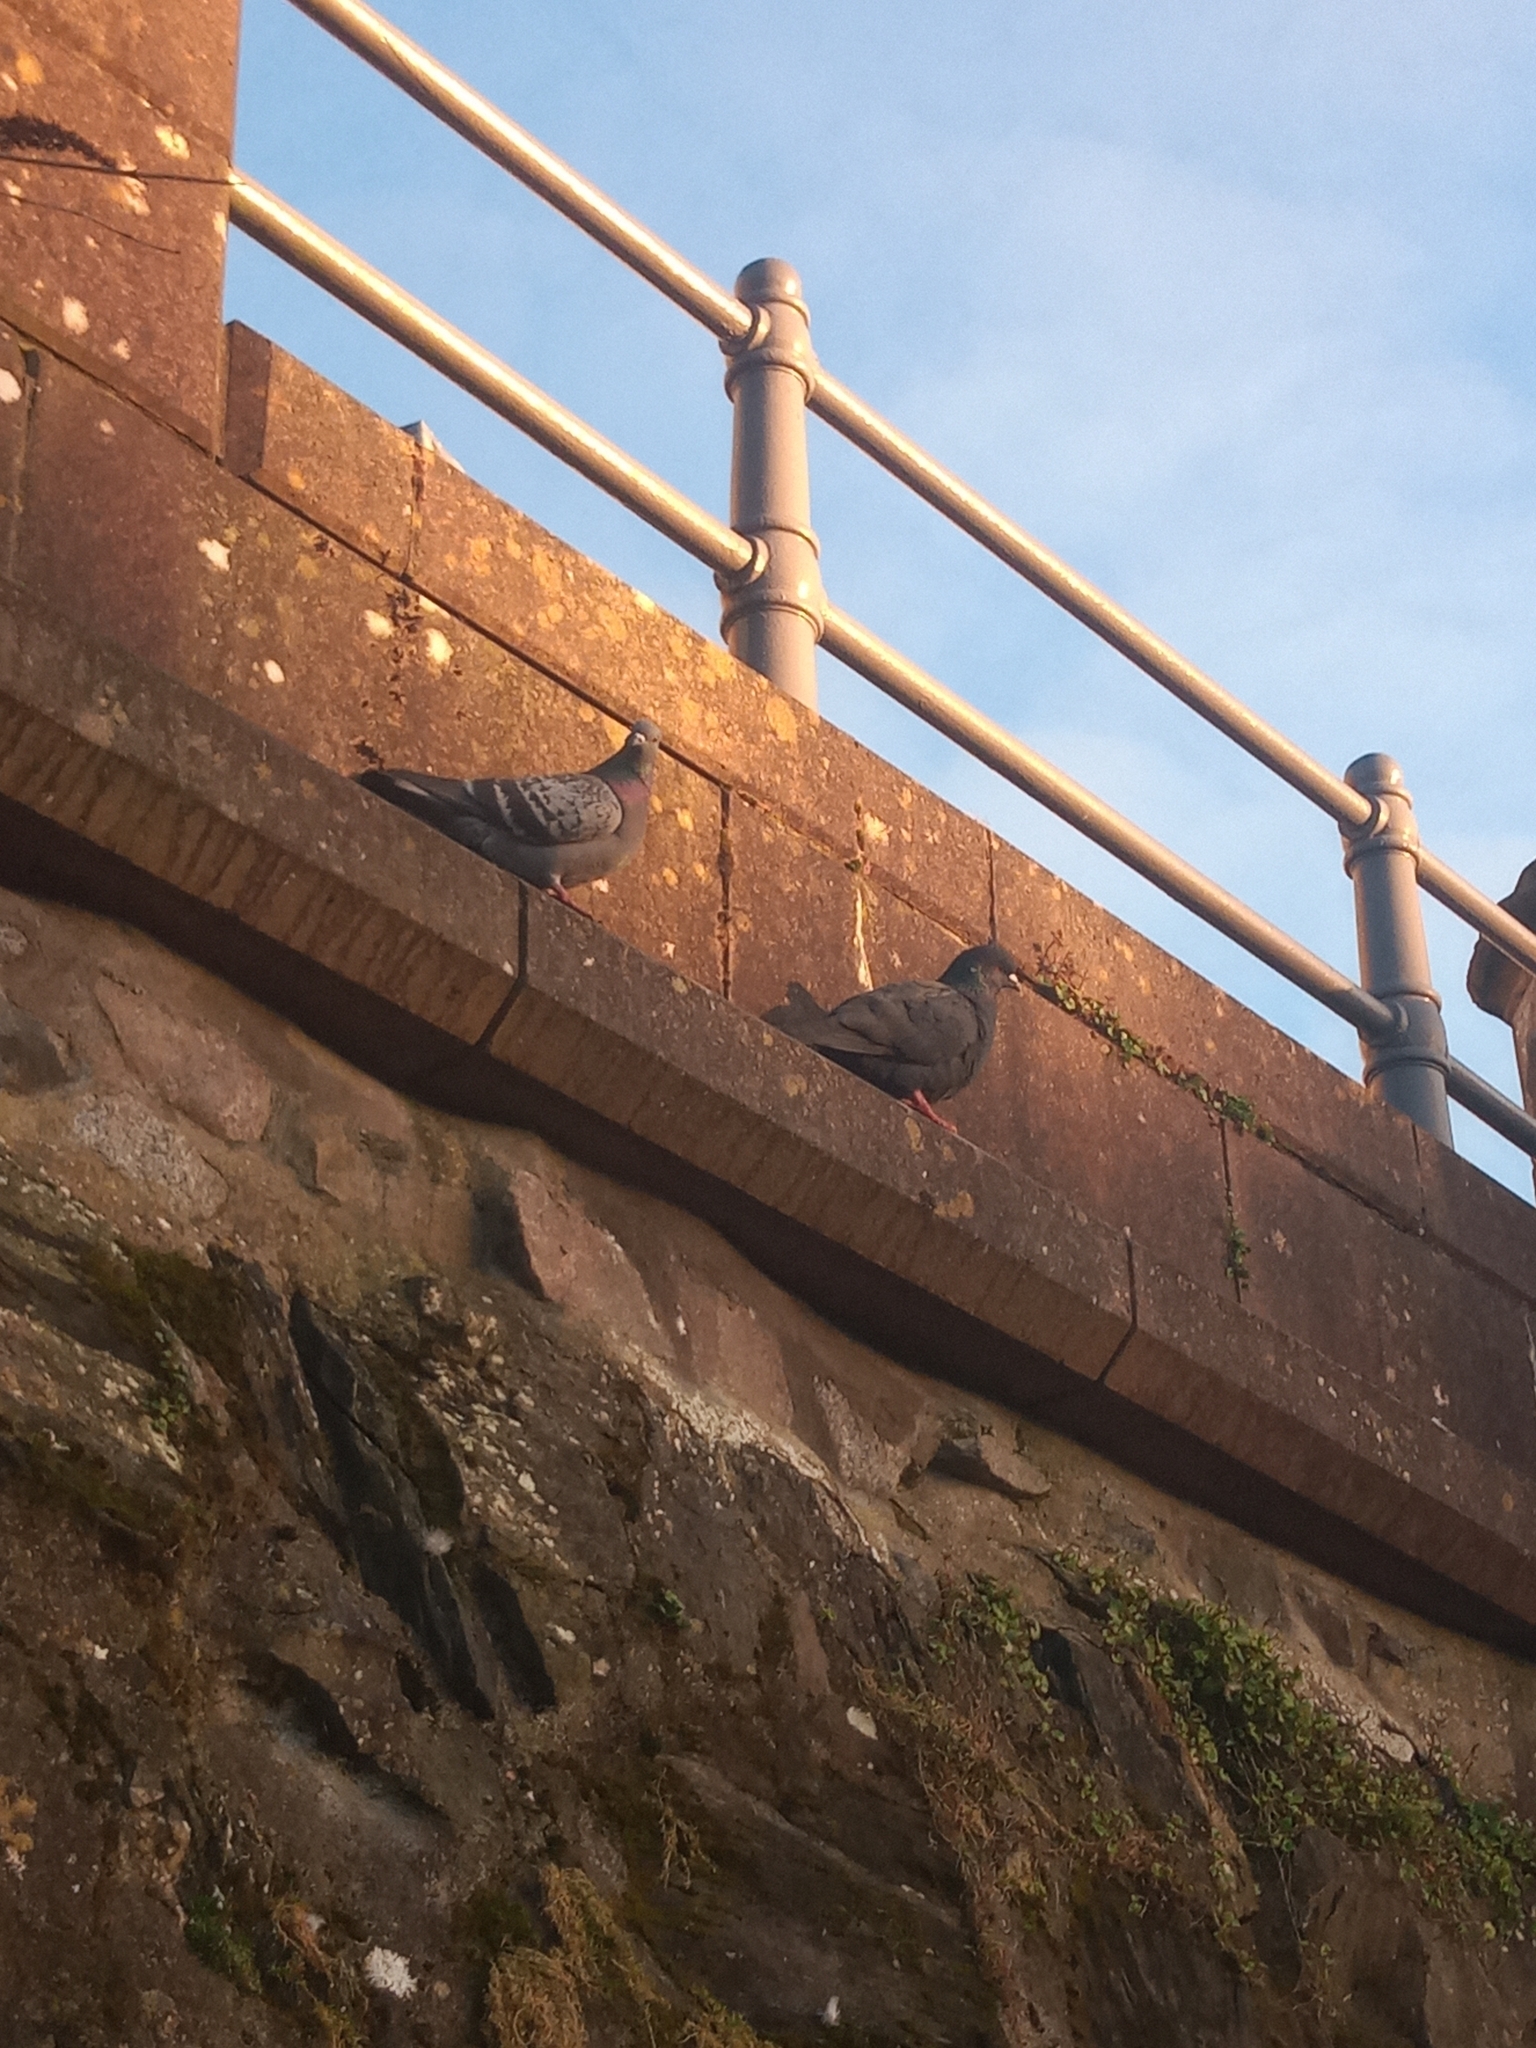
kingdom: Animalia
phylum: Chordata
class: Aves
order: Columbiformes
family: Columbidae
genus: Columba
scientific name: Columba livia
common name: Rock pigeon
